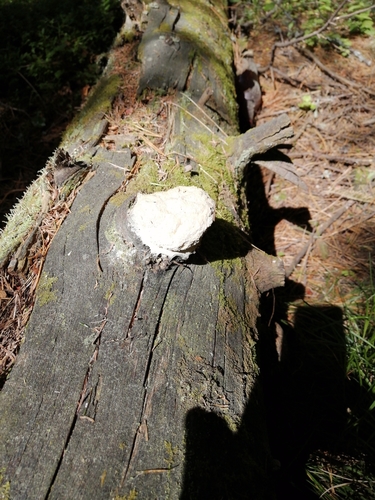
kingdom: Protozoa
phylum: Mycetozoa
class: Myxomycetes
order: Physarales
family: Physaraceae
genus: Fuligo
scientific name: Fuligo
